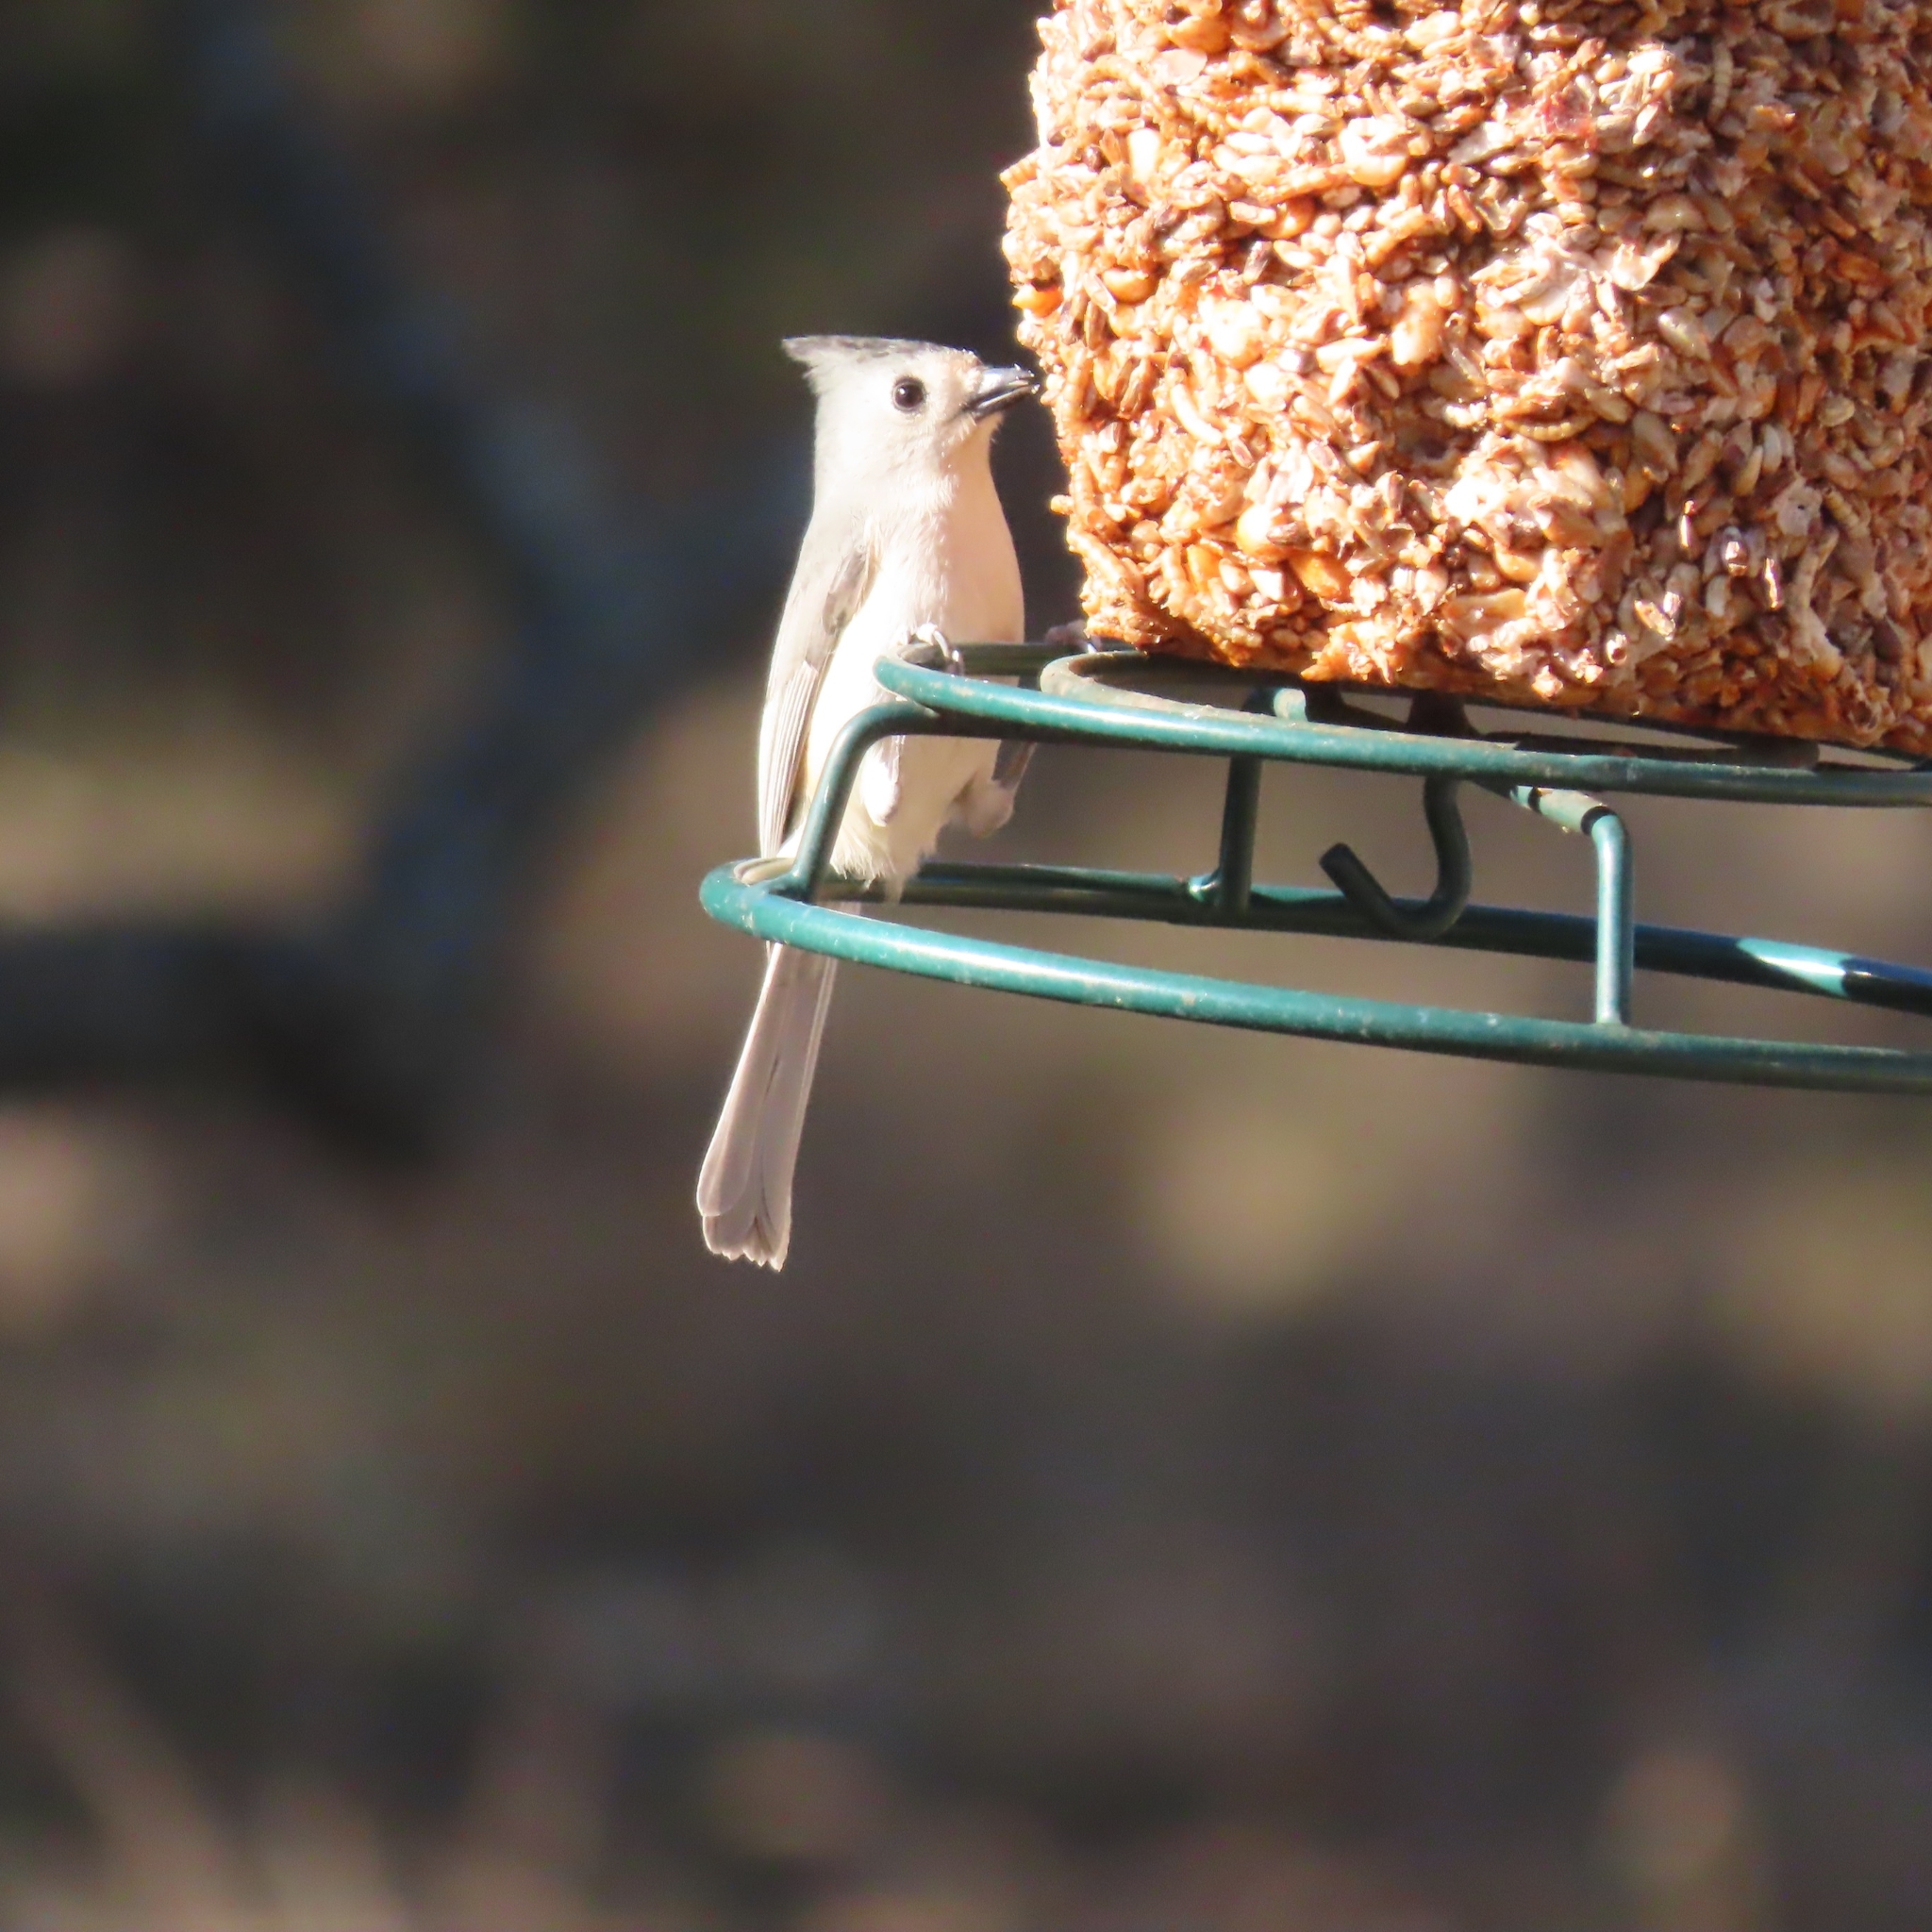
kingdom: Animalia
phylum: Chordata
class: Aves
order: Passeriformes
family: Paridae
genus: Baeolophus
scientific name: Baeolophus atricristatus
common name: Black-crested titmouse
